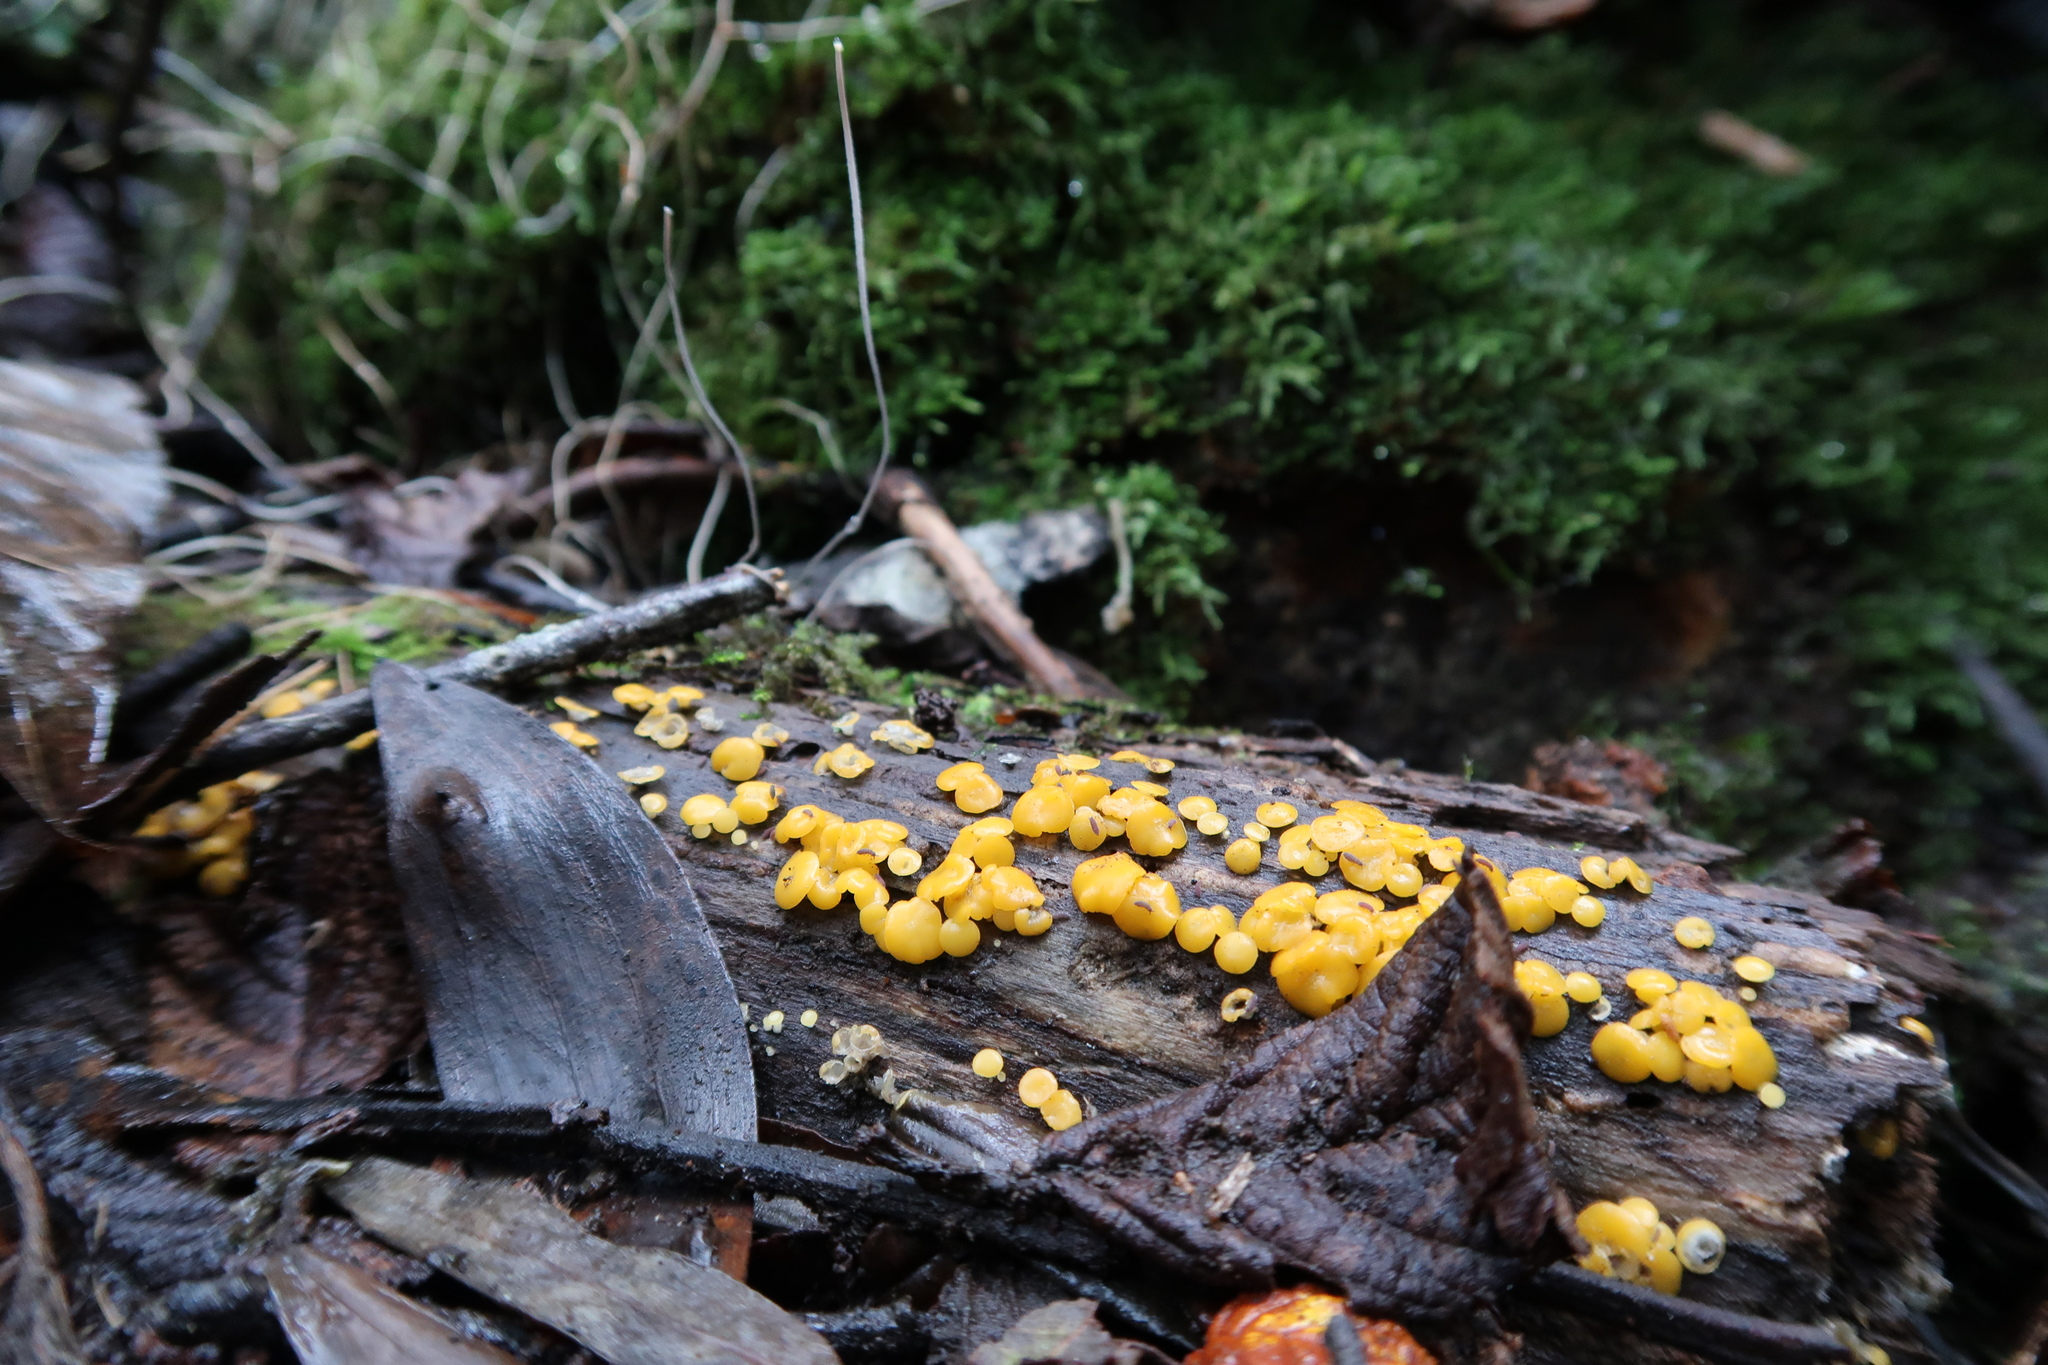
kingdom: Fungi
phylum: Ascomycota
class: Leotiomycetes
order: Helotiales
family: Pezizellaceae
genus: Calycina
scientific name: Calycina citrina
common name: Yellow fairy cups
